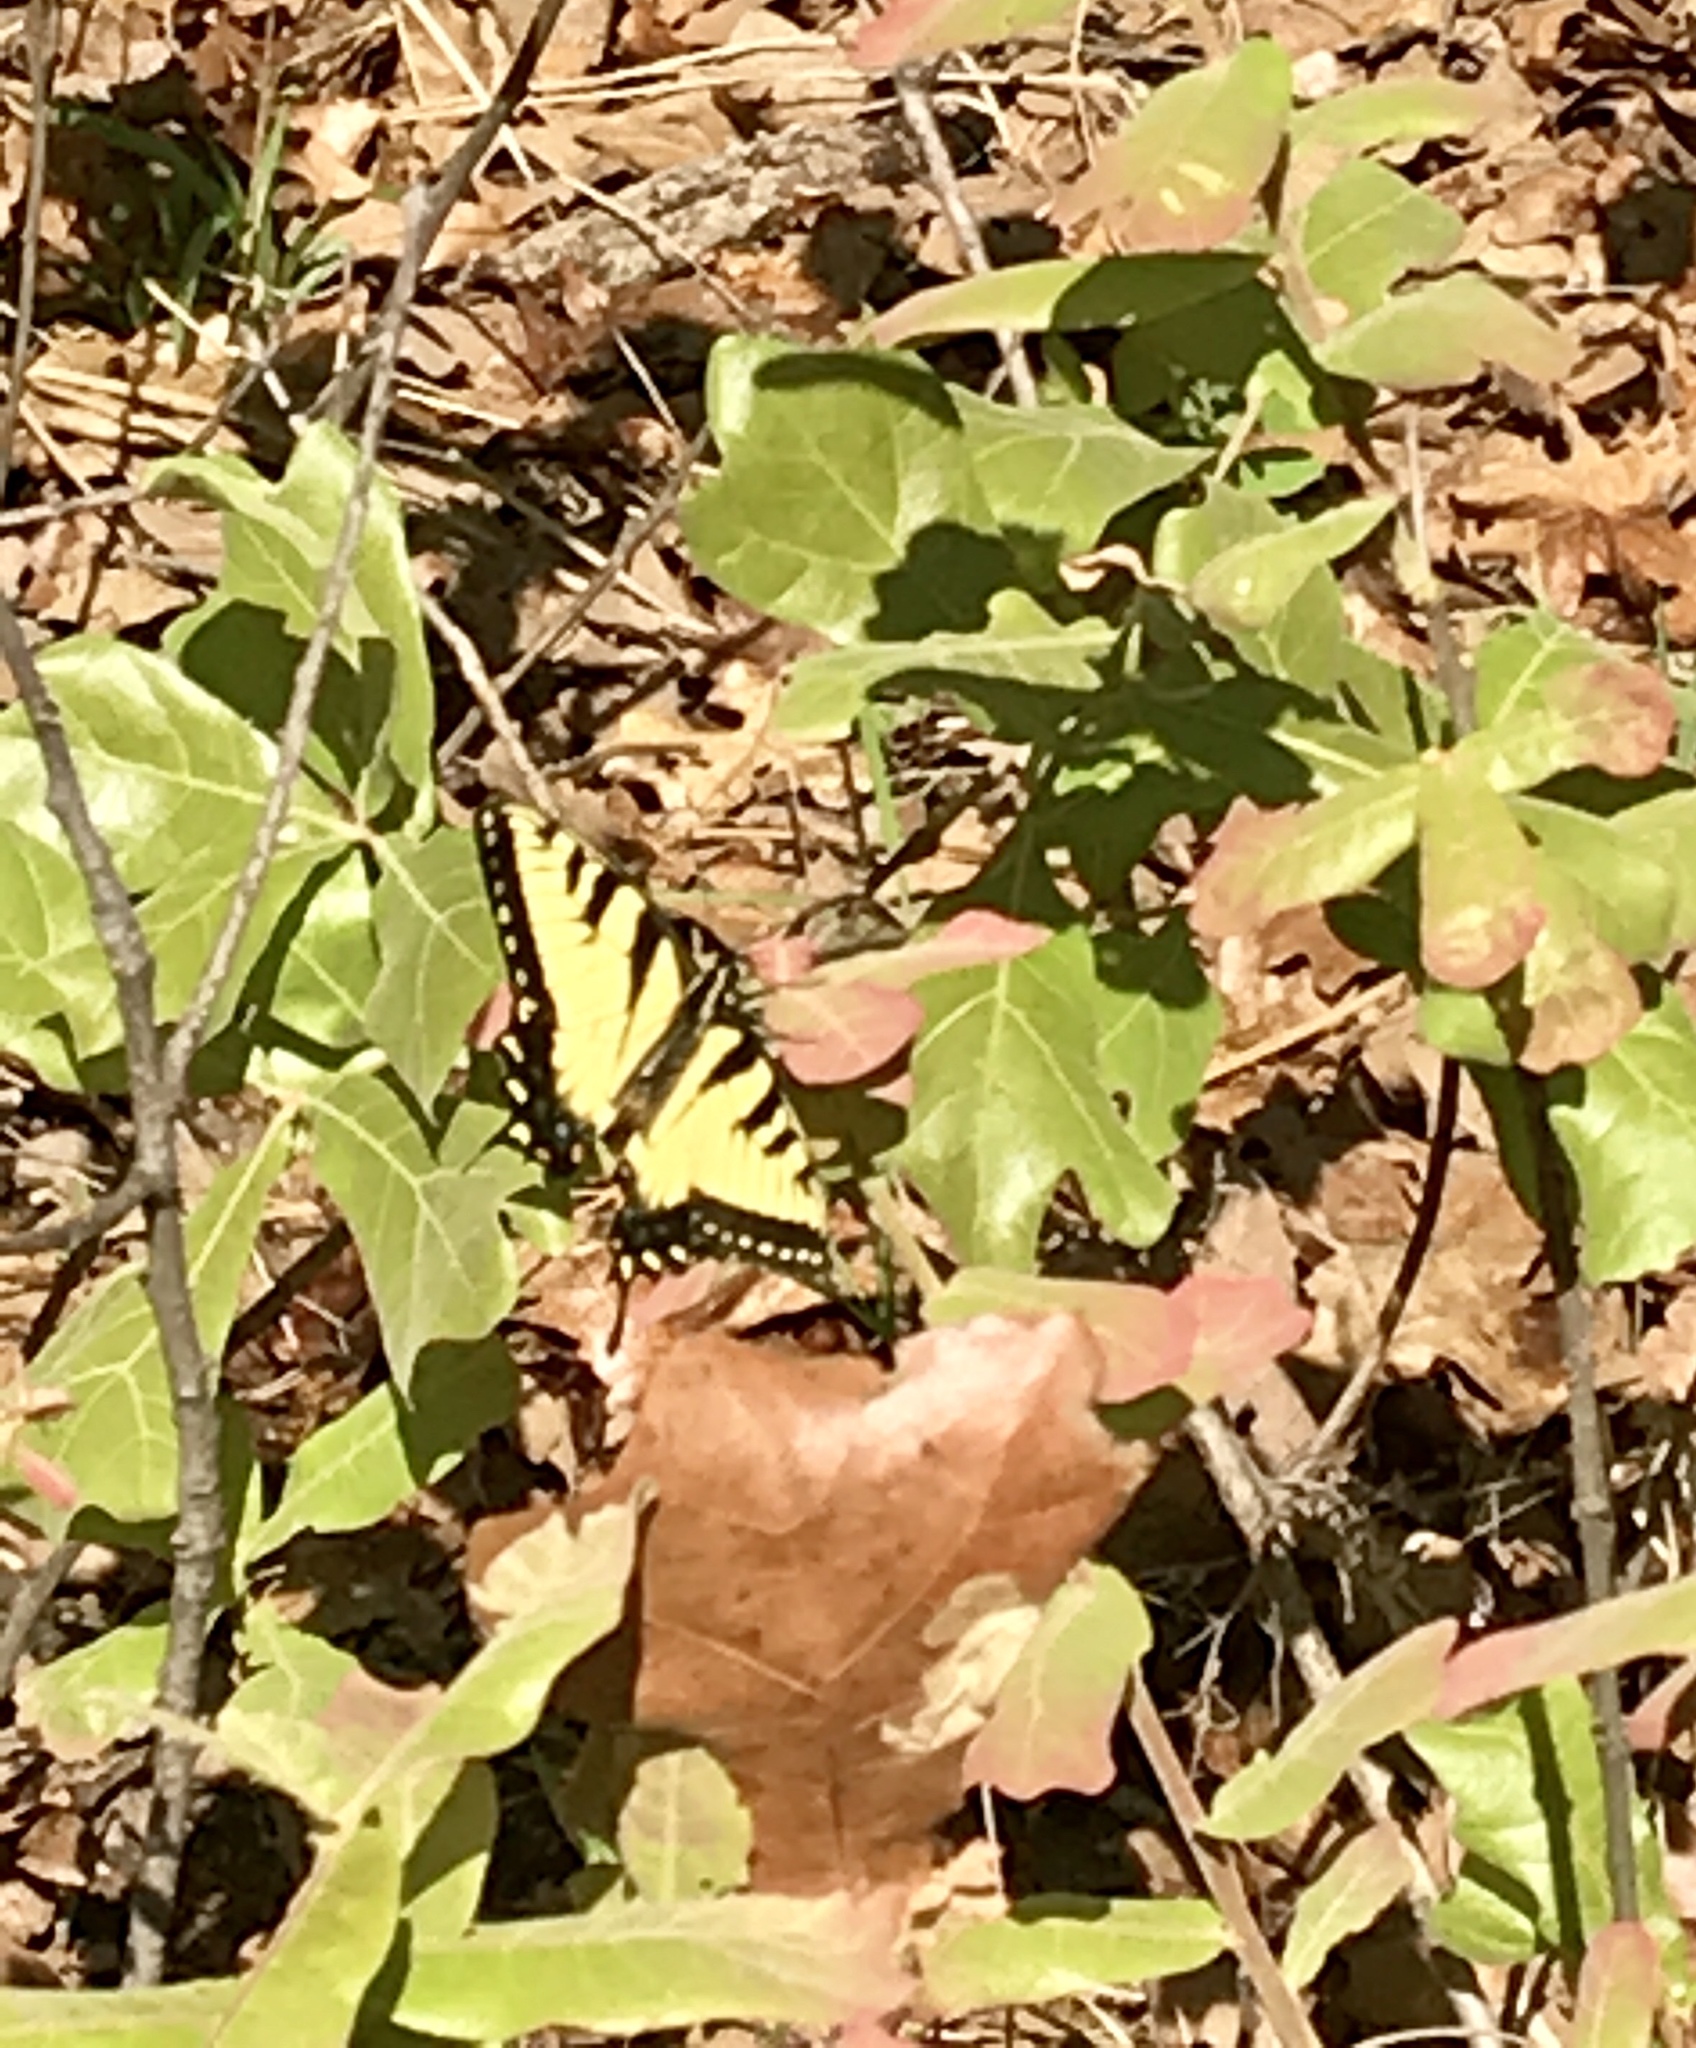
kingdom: Animalia
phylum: Arthropoda
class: Insecta
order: Lepidoptera
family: Papilionidae
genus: Papilio
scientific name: Papilio glaucus
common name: Tiger swallowtail
